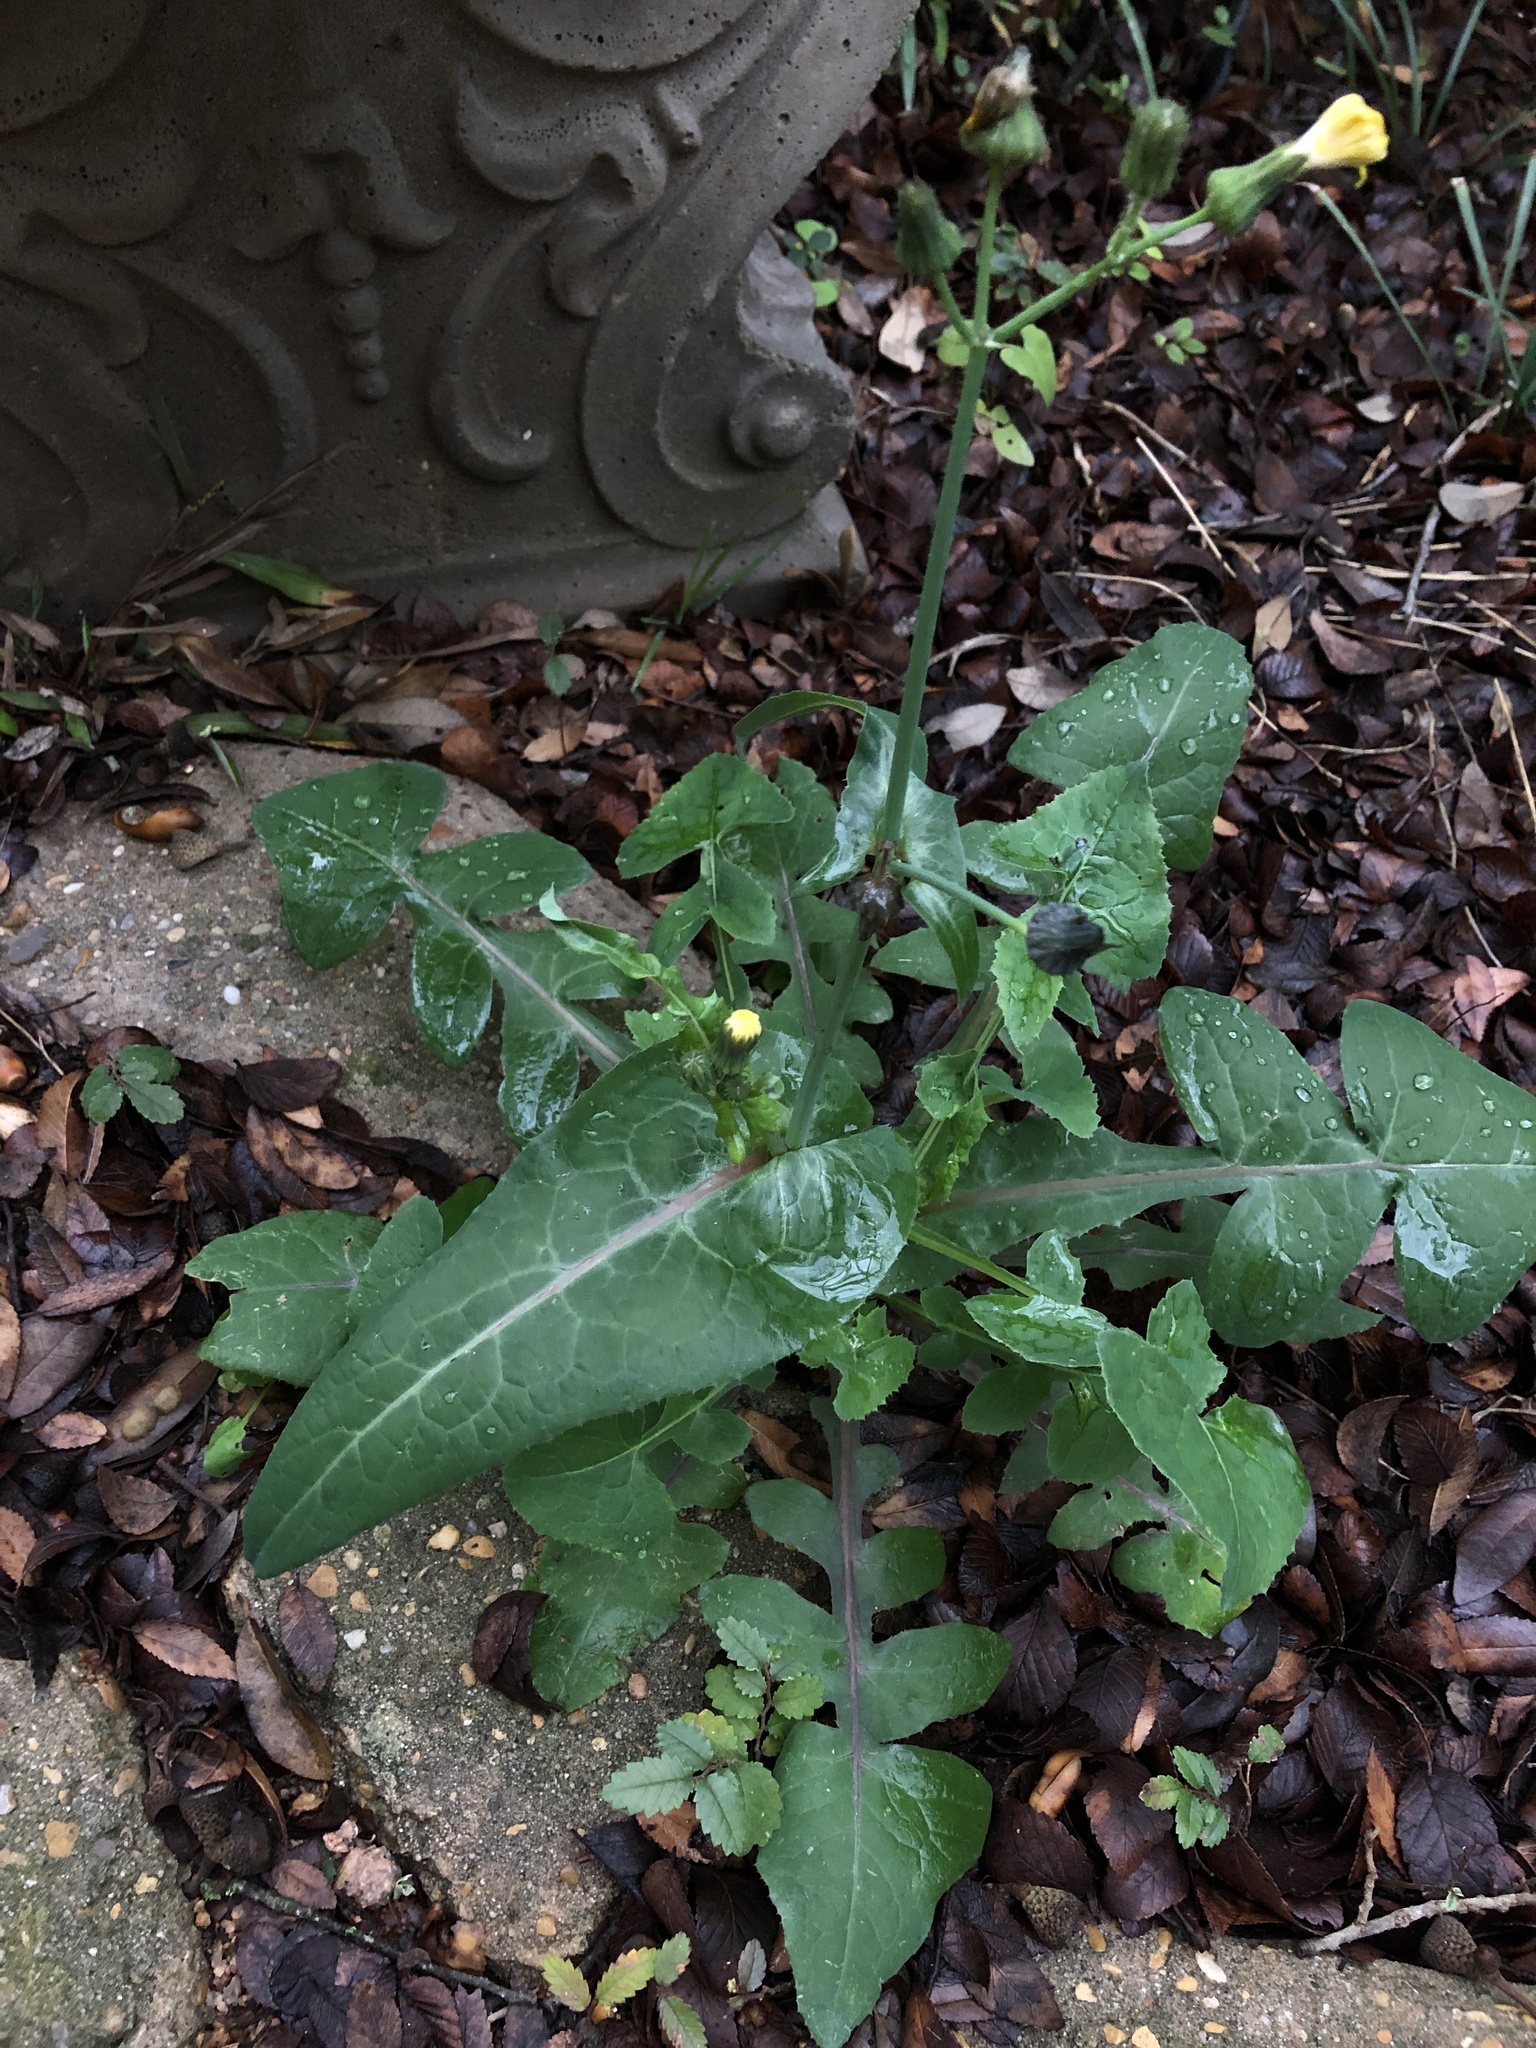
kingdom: Plantae
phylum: Tracheophyta
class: Magnoliopsida
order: Asterales
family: Asteraceae
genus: Sonchus
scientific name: Sonchus oleraceus
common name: Common sowthistle
